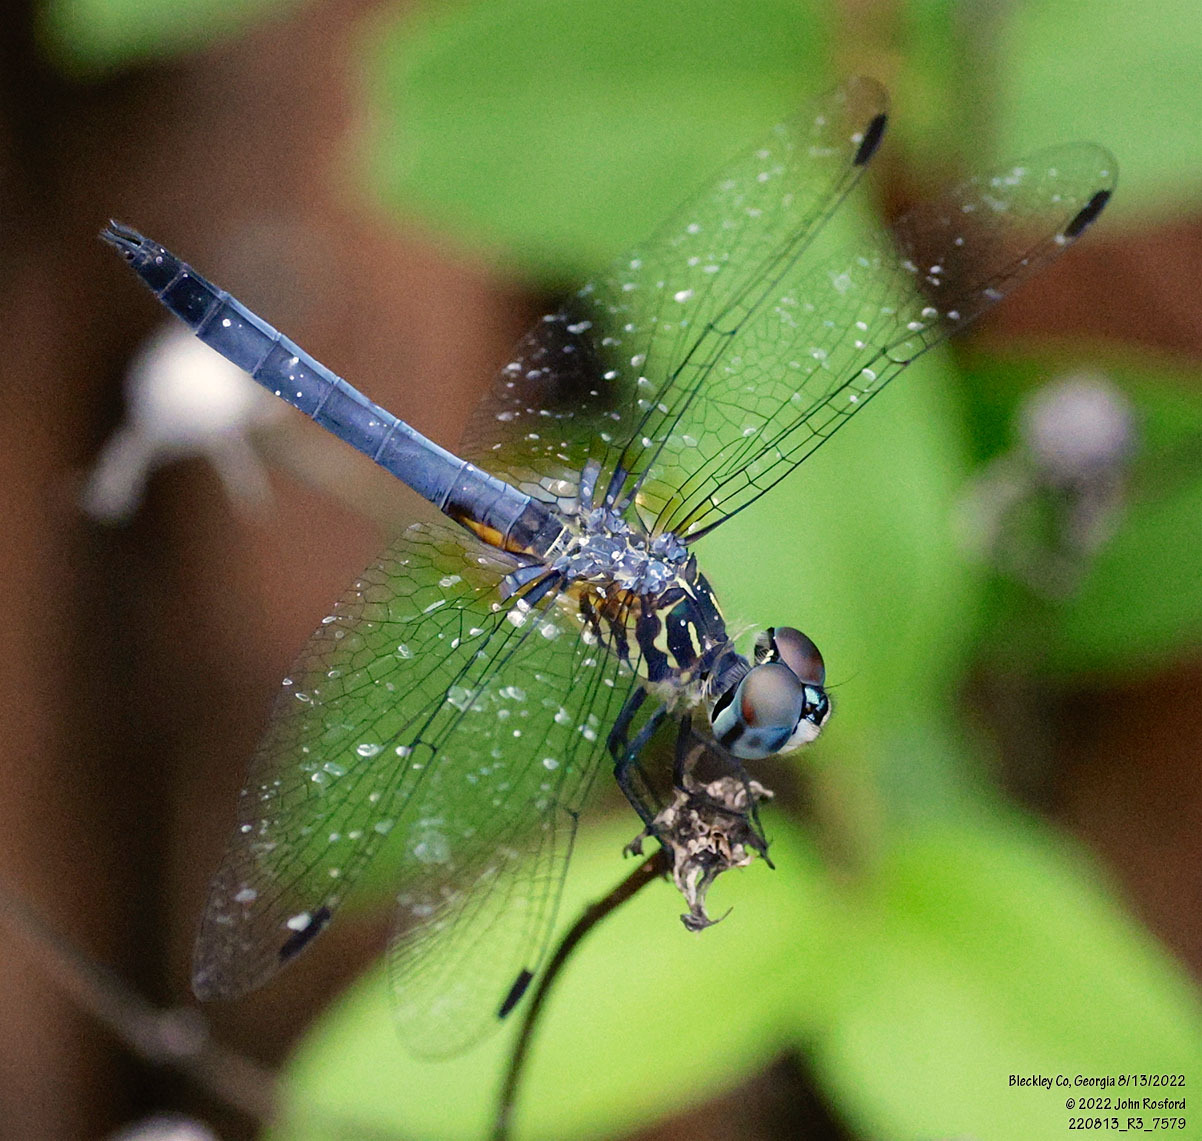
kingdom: Animalia
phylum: Arthropoda
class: Insecta
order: Odonata
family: Libellulidae
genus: Pachydiplax
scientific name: Pachydiplax longipennis
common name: Blue dasher
